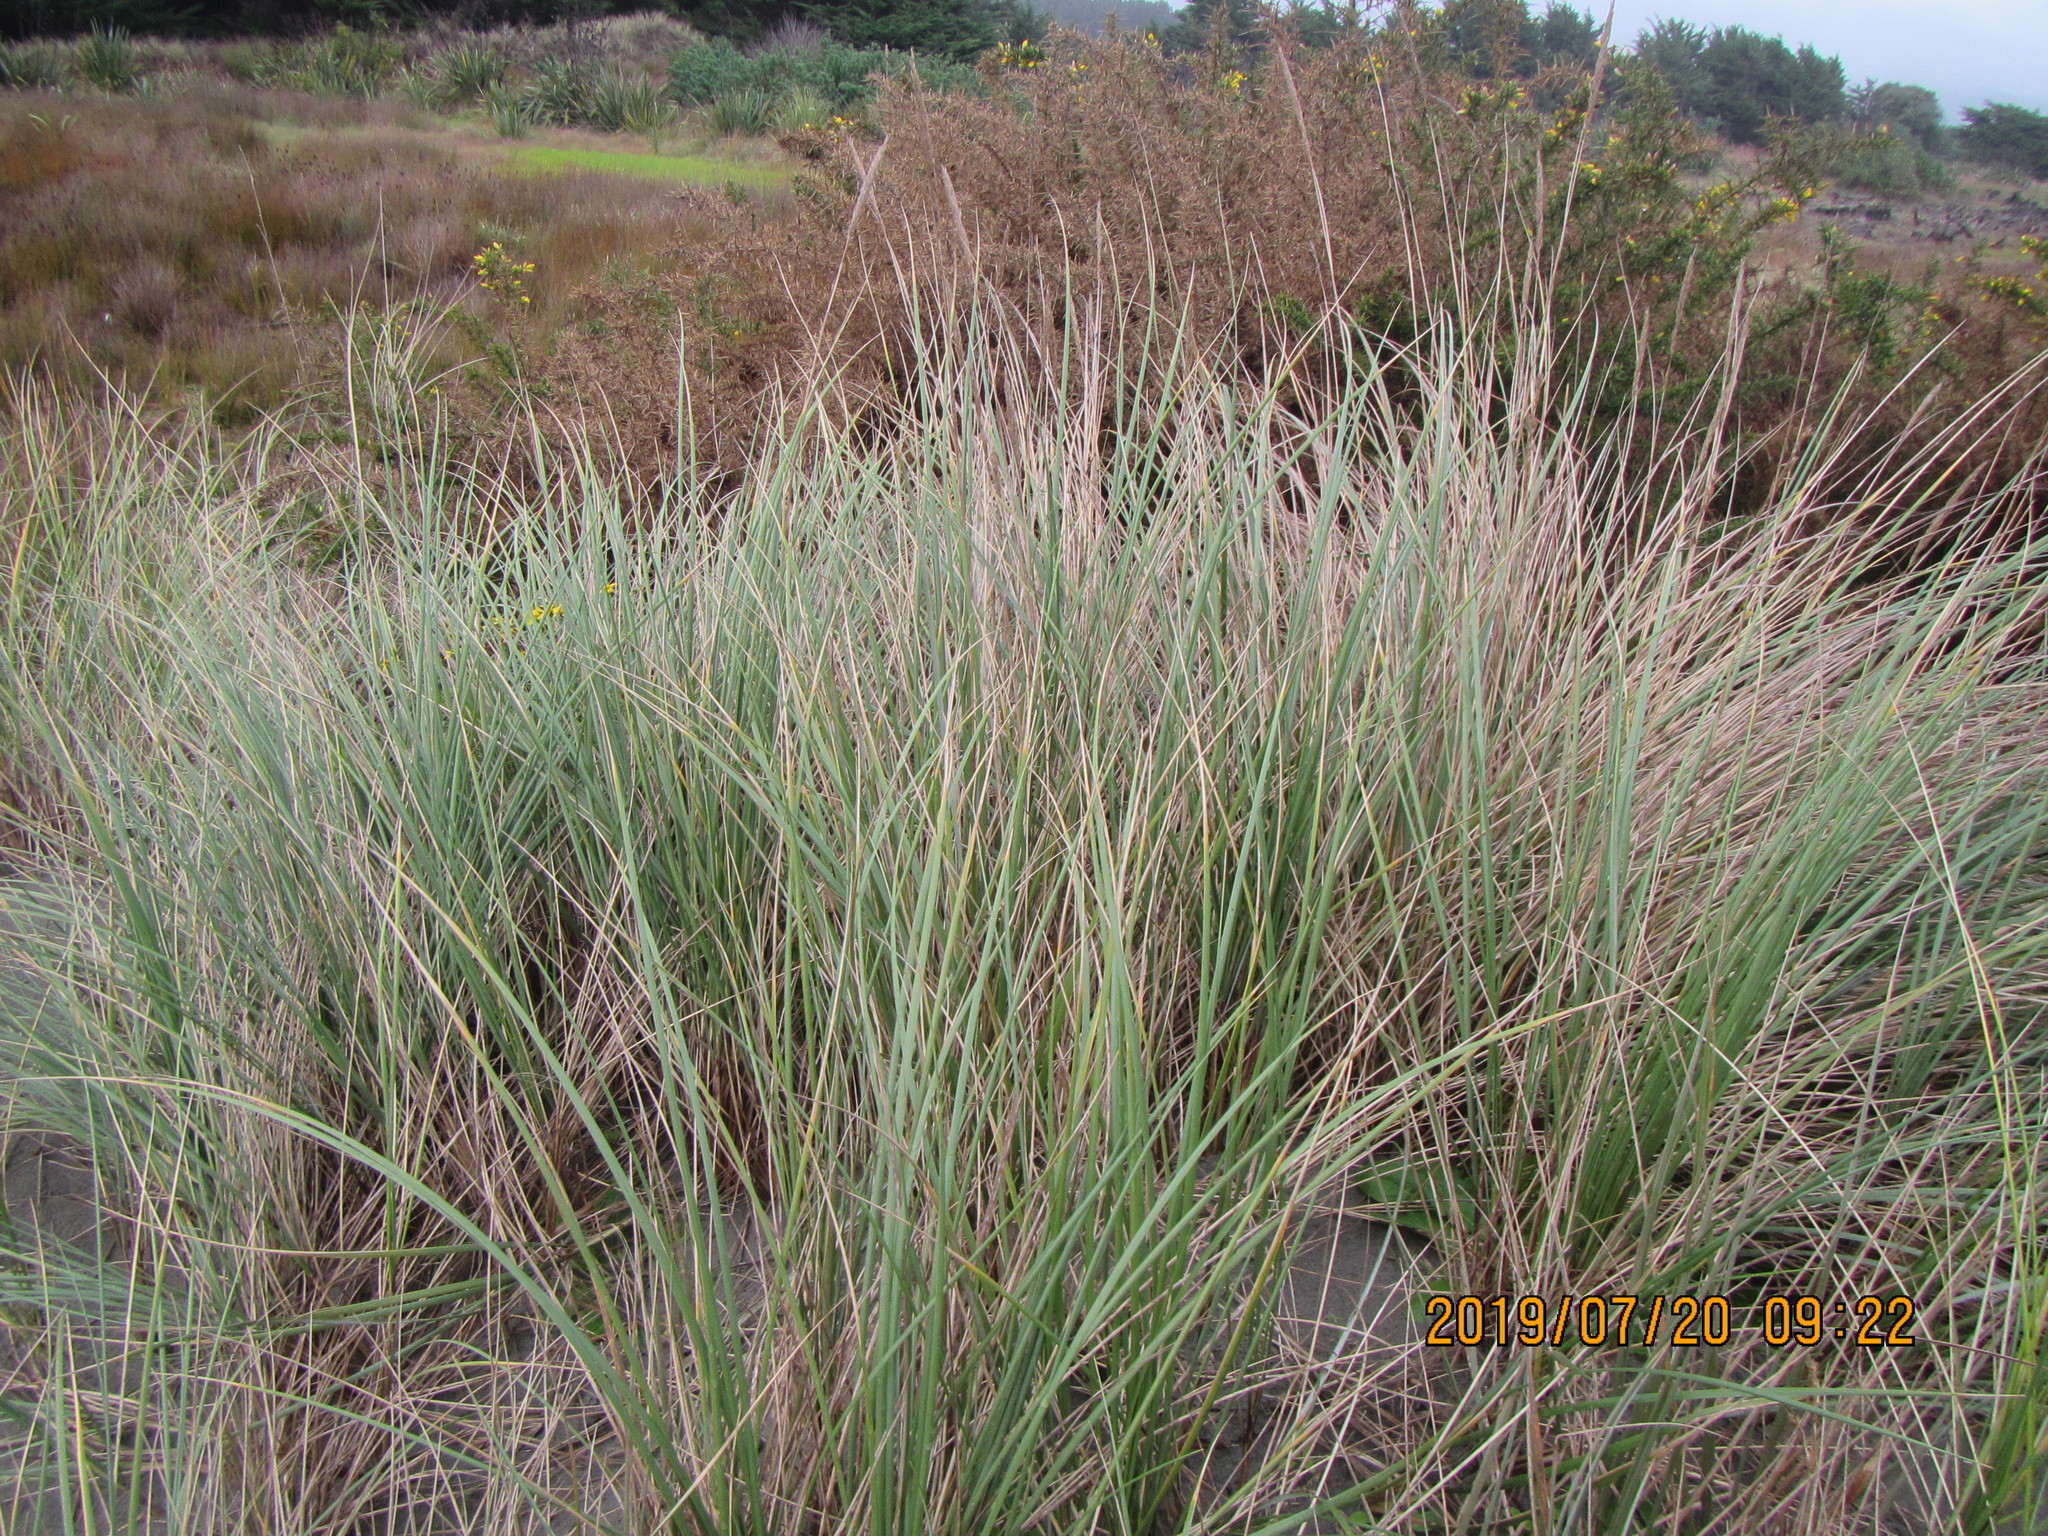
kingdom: Plantae
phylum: Tracheophyta
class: Liliopsida
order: Poales
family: Poaceae
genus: Calamagrostis
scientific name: Calamagrostis arenaria
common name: European beachgrass
